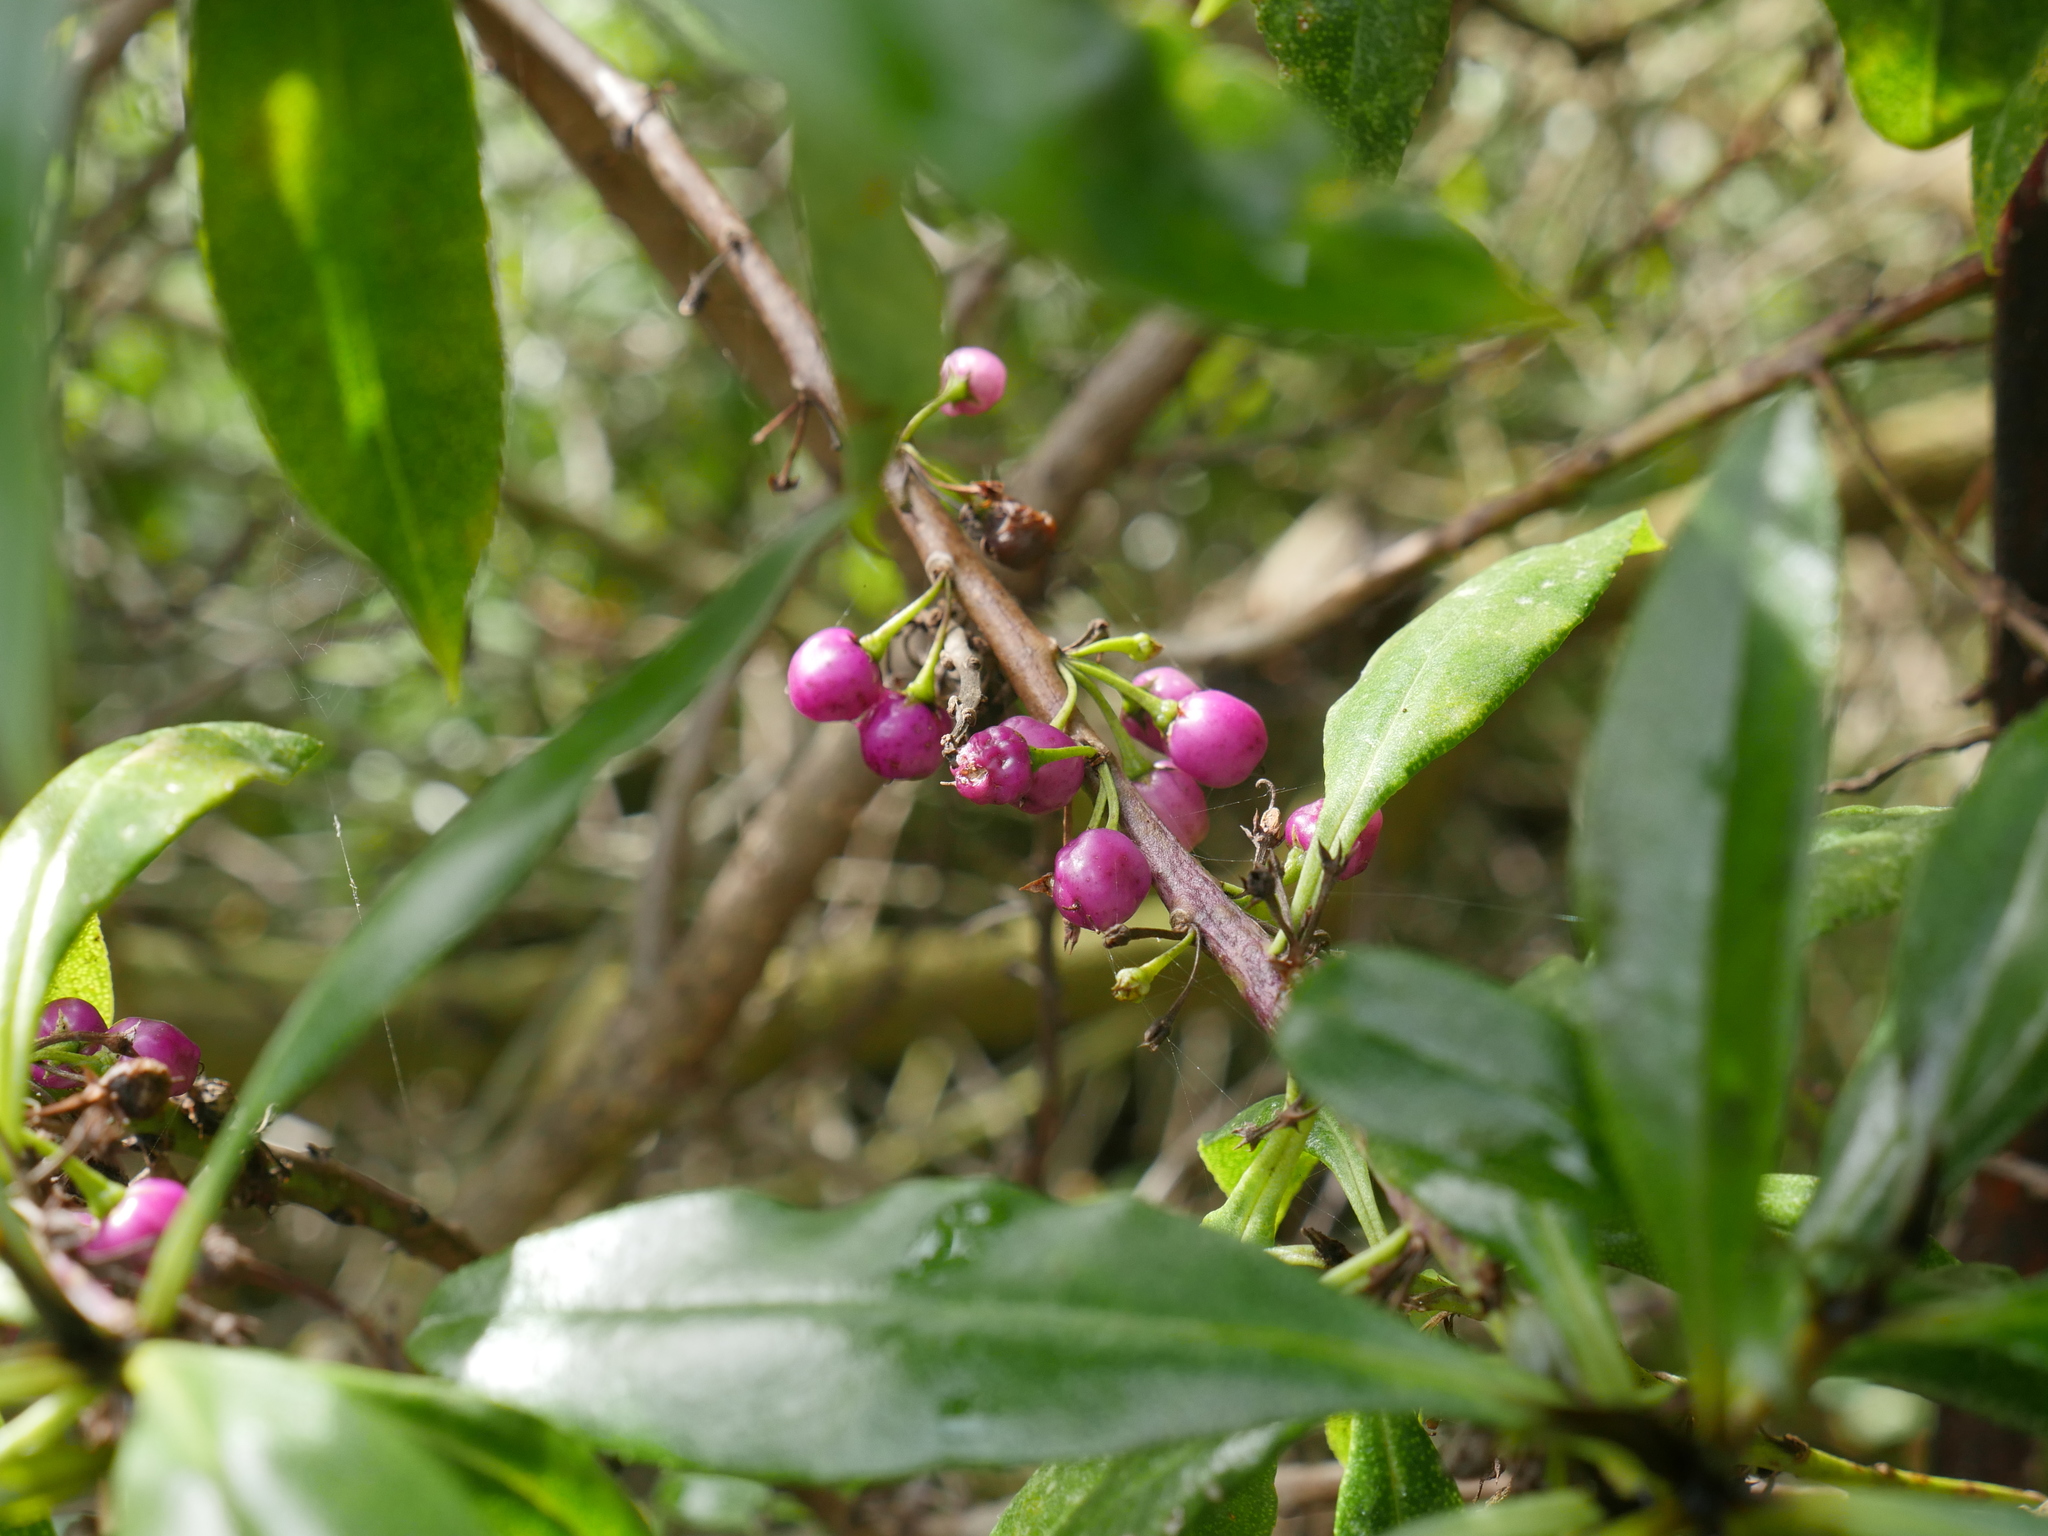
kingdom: Plantae
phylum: Tracheophyta
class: Magnoliopsida
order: Lamiales
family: Scrophulariaceae
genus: Myoporum
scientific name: Myoporum laetum
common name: Ngaio tree
